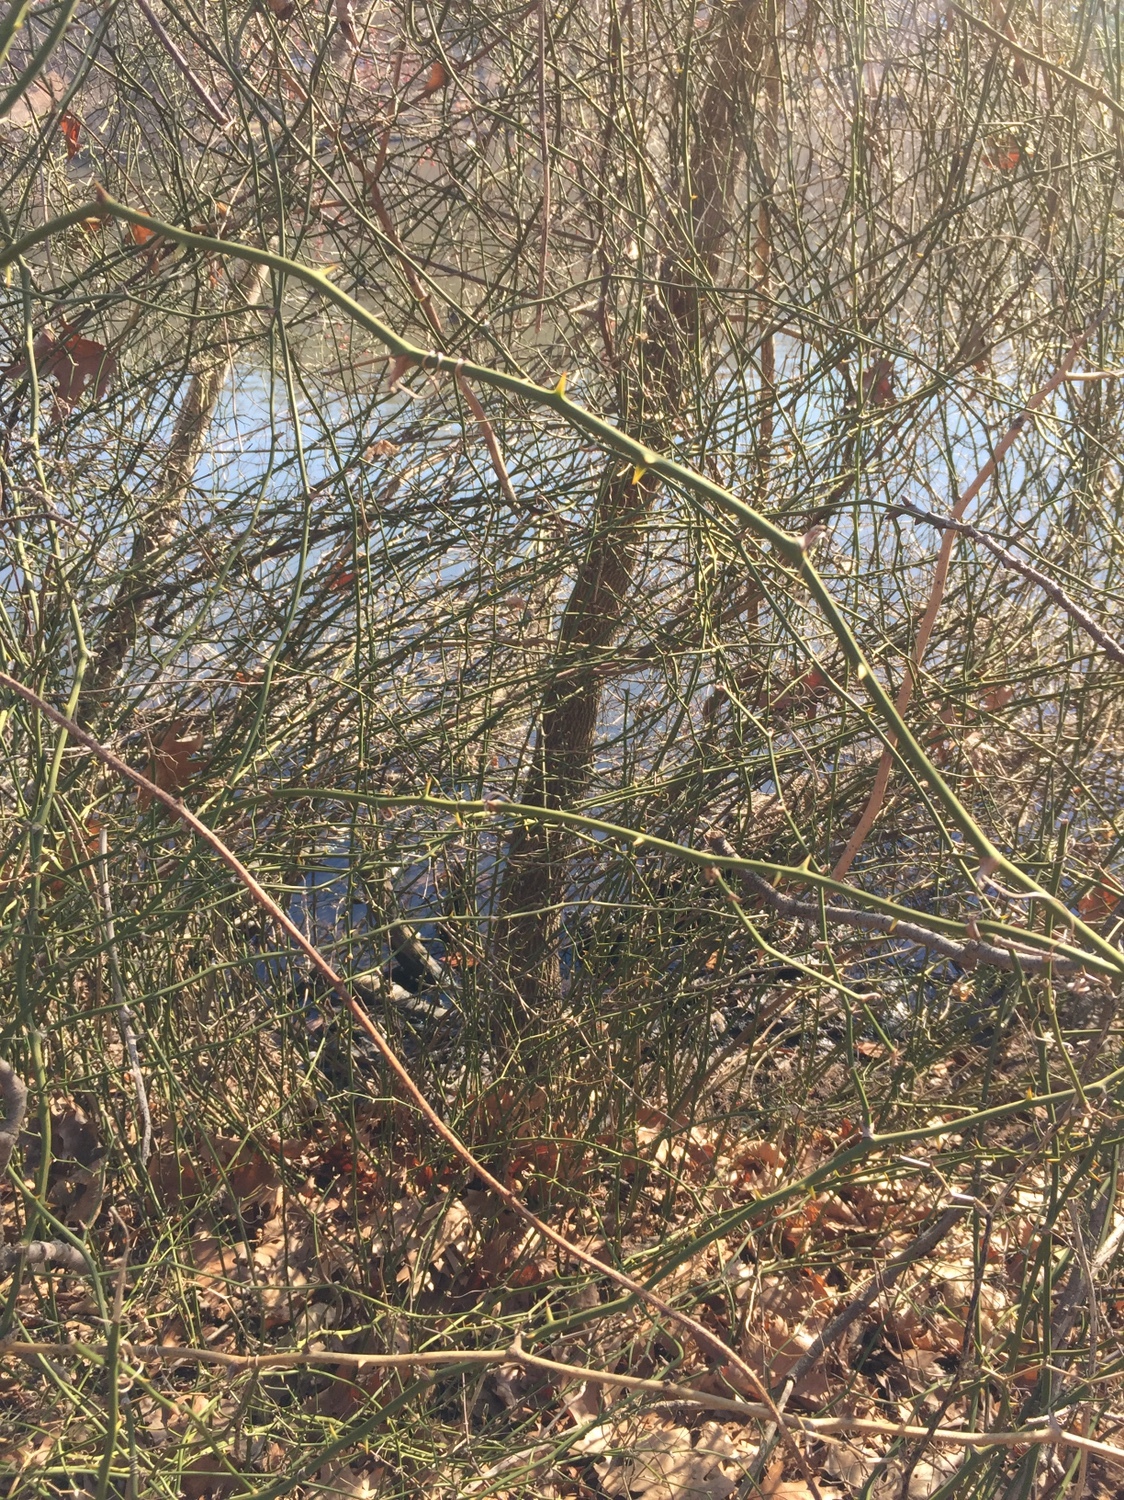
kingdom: Plantae
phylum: Tracheophyta
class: Liliopsida
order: Liliales
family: Smilacaceae
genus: Smilax
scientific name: Smilax rotundifolia
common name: Bullbriar
